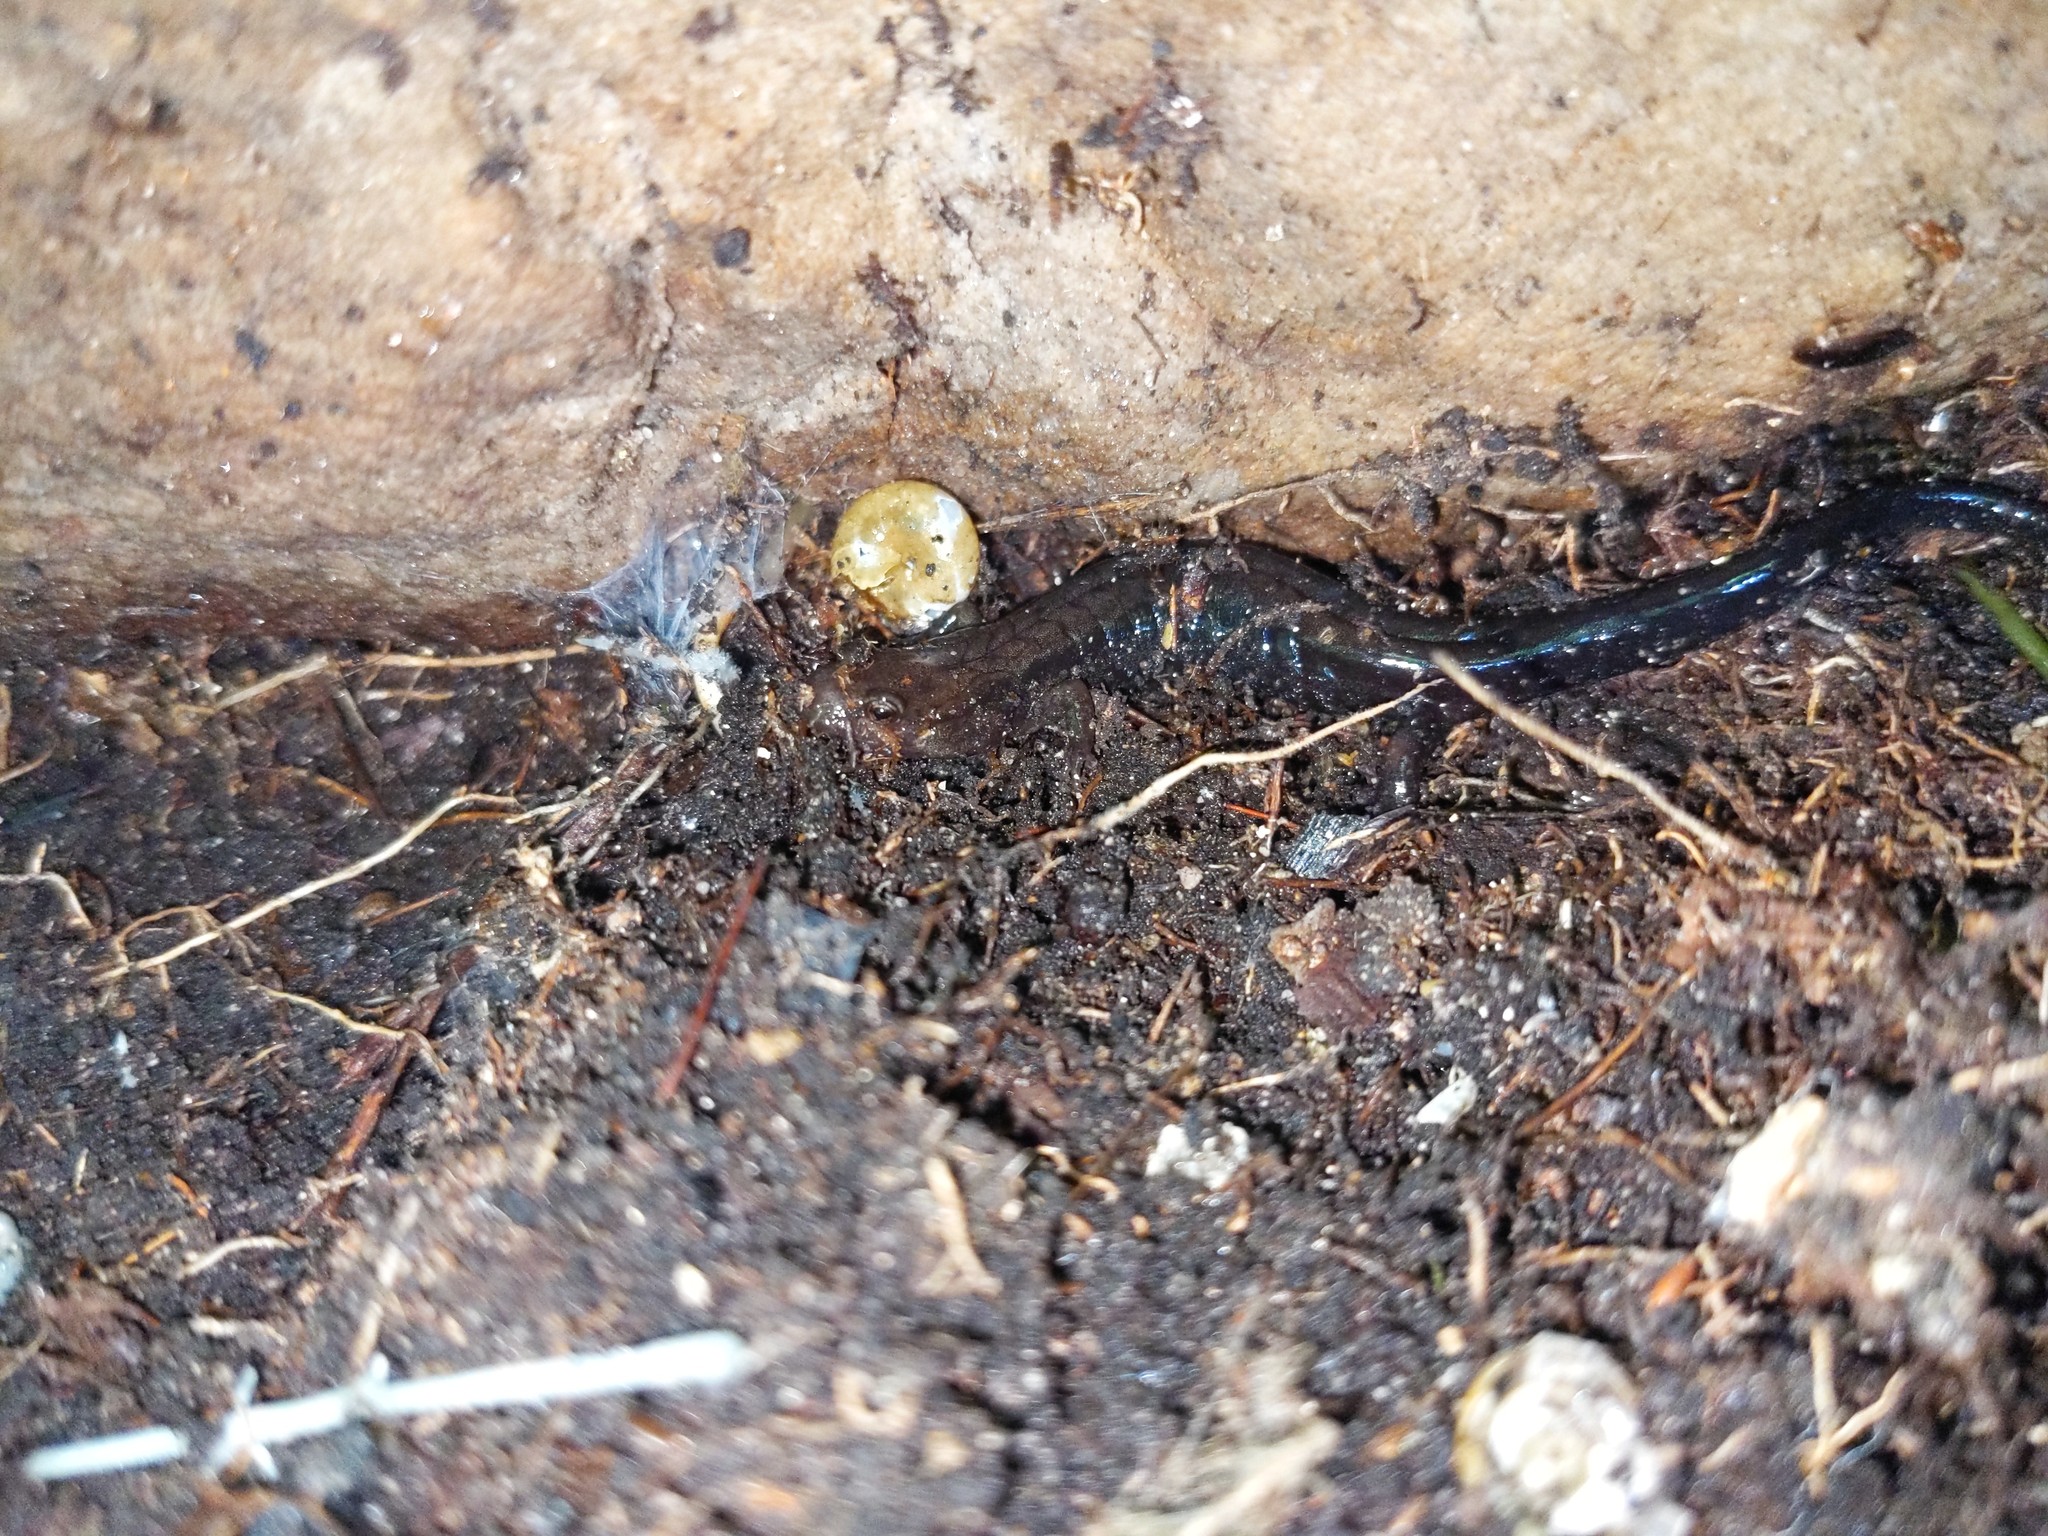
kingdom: Animalia
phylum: Chordata
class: Amphibia
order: Caudata
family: Plethodontidae
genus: Desmognathus
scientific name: Desmognathus ochrophaeus
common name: Allegheny mountain dusky salamander
